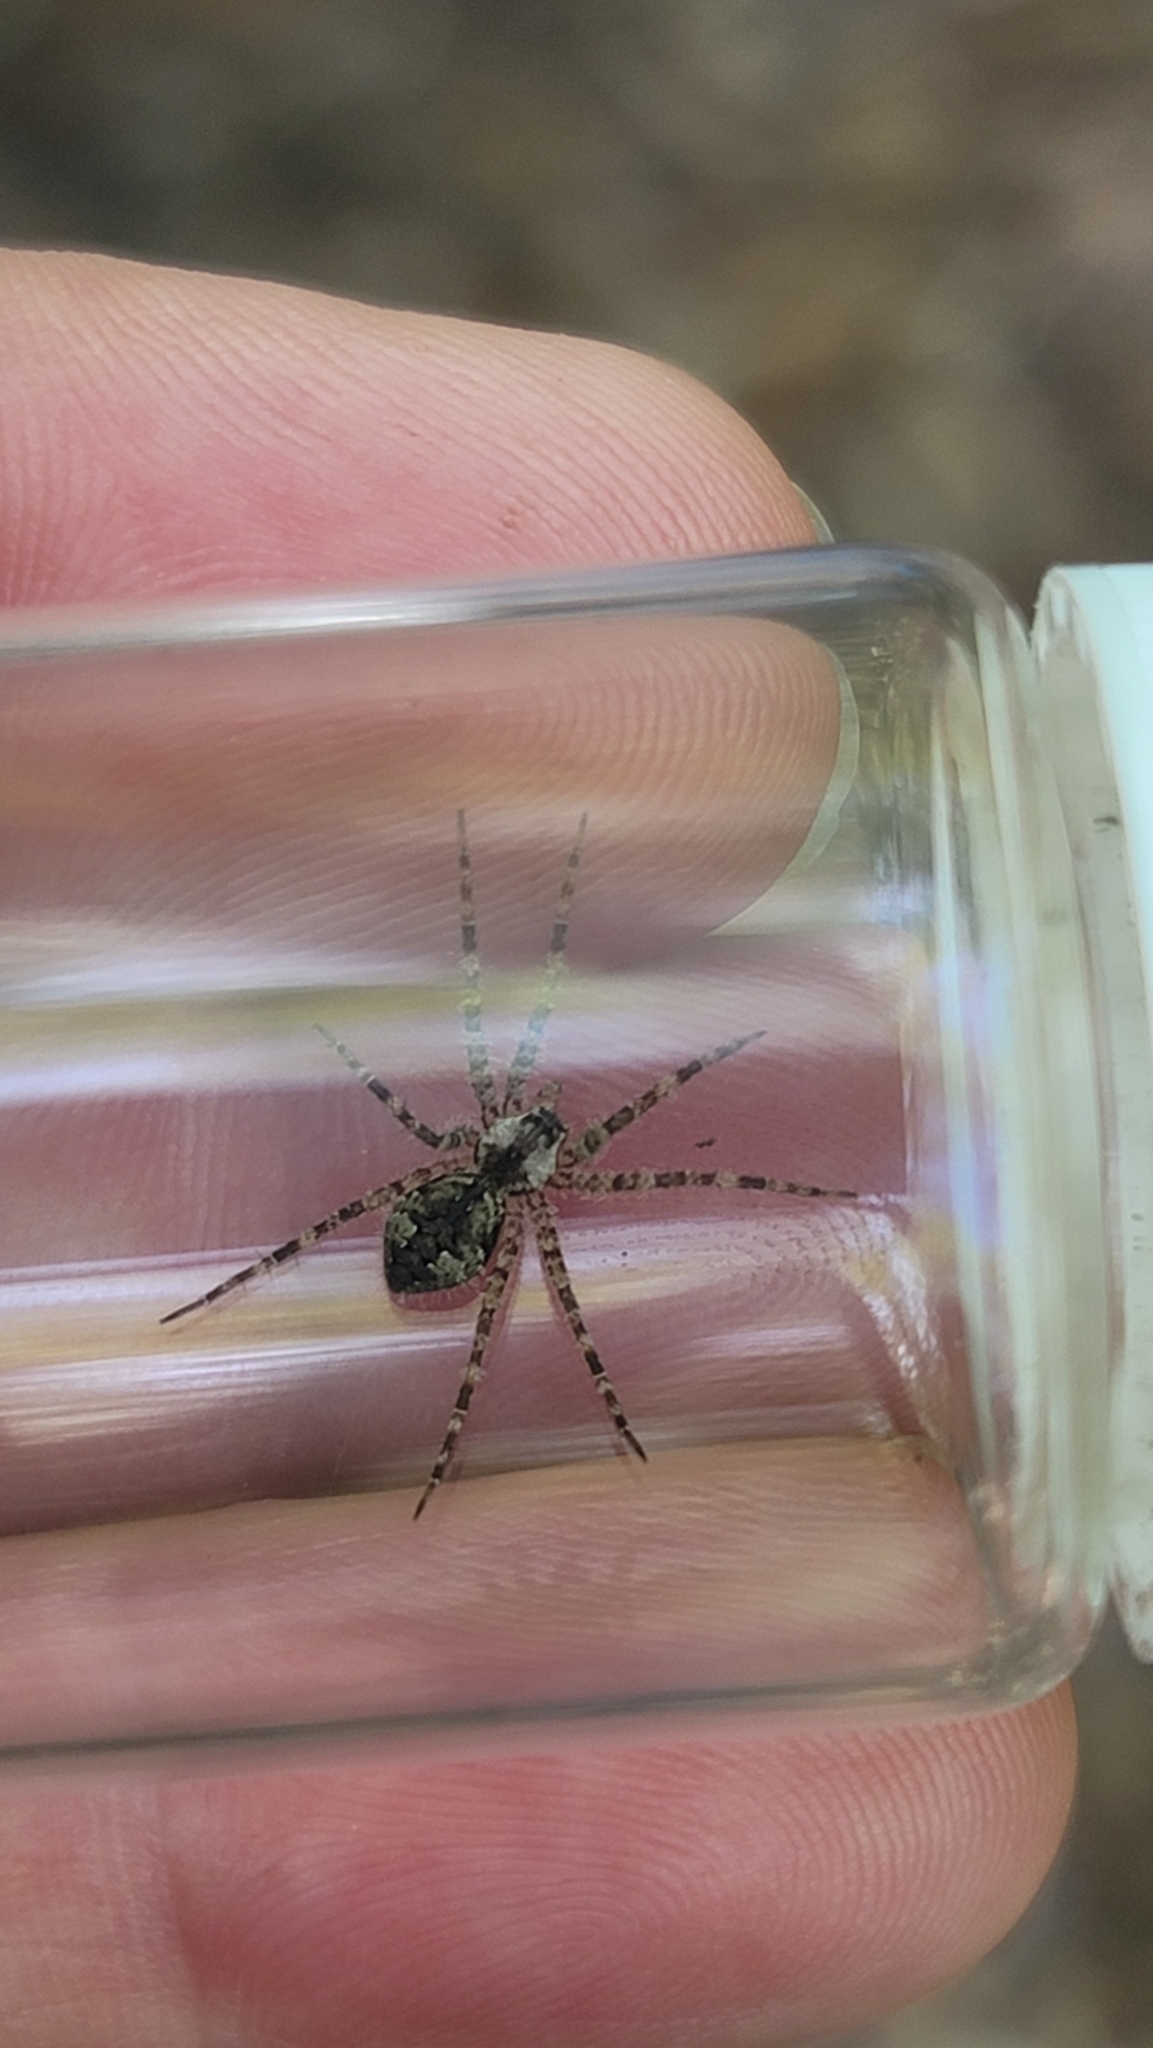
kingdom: Animalia
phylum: Arthropoda
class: Arachnida
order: Araneae
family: Pisauridae
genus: Dolomedes
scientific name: Dolomedes albineus
